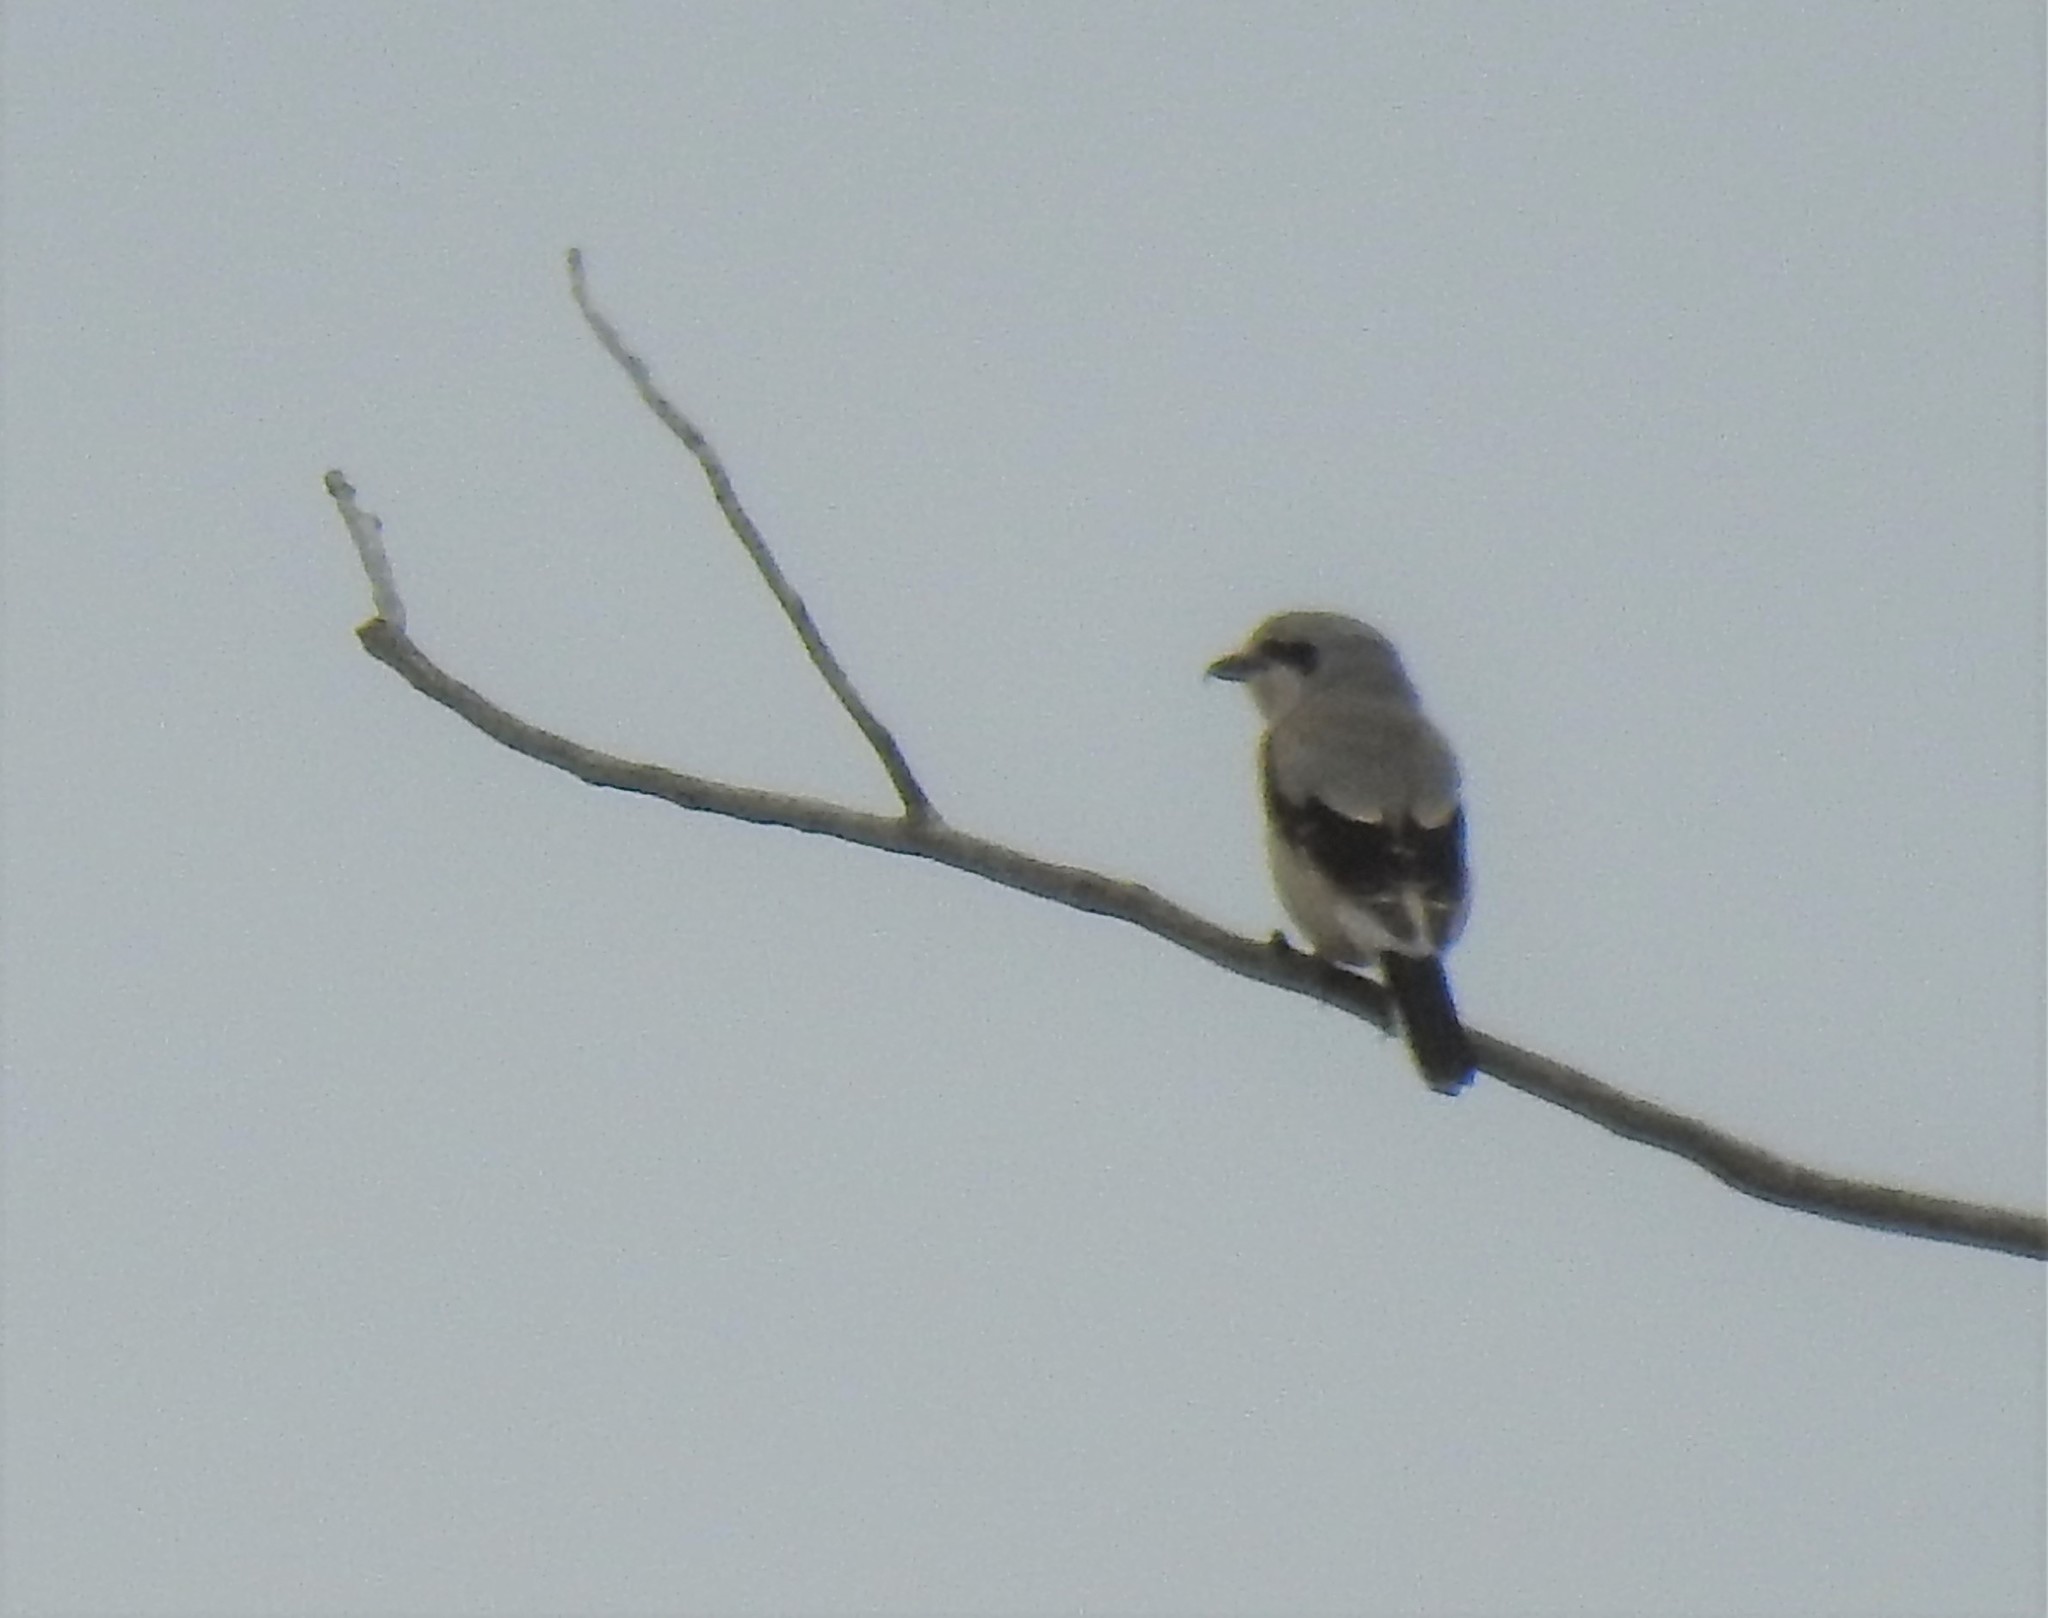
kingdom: Animalia
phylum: Chordata
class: Aves
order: Passeriformes
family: Laniidae
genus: Lanius
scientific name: Lanius borealis
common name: Northern shrike
